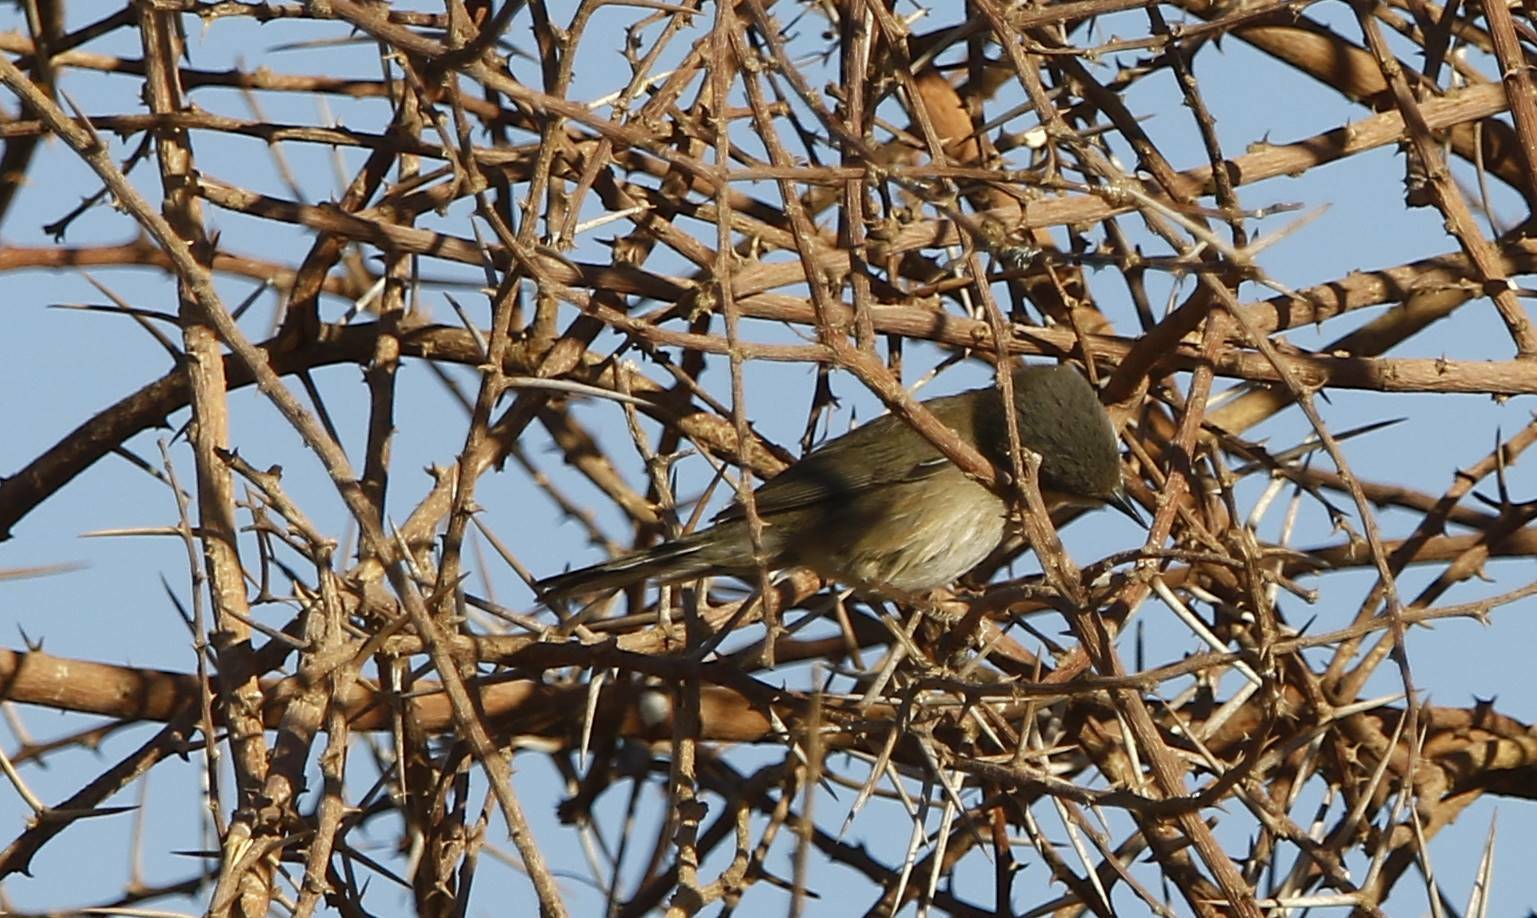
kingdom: Animalia
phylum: Chordata
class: Aves
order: Passeriformes
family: Sylviidae
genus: Curruca
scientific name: Curruca melanocephala
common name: Sardinian warbler
